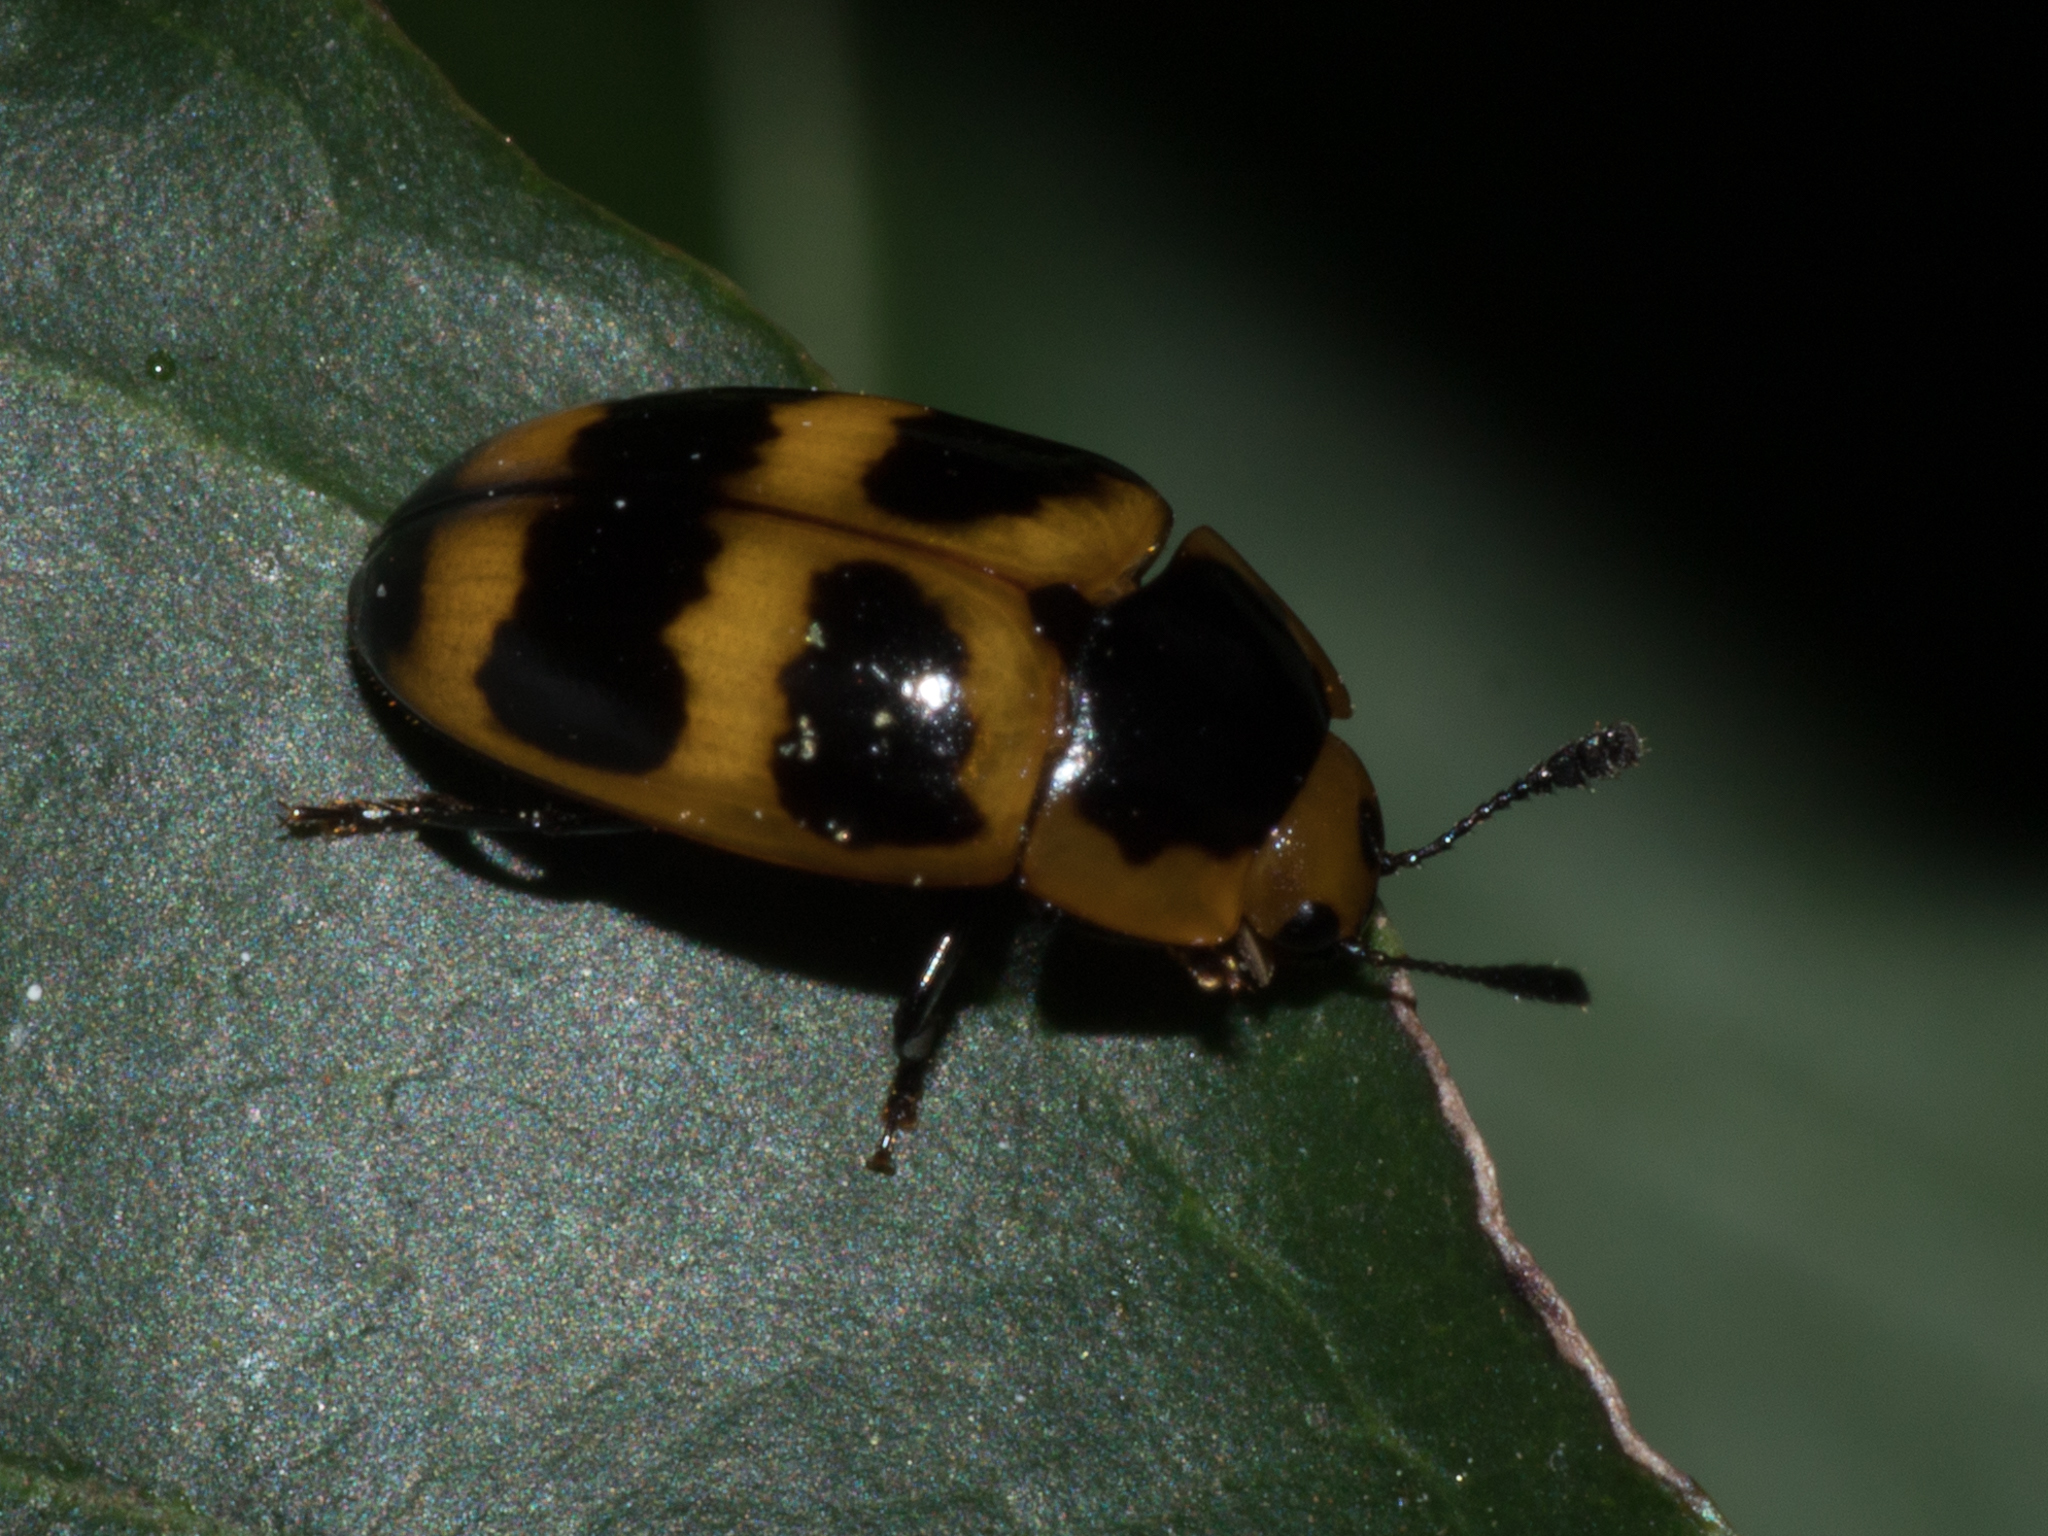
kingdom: Animalia
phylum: Arthropoda
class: Insecta
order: Coleoptera
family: Erotylidae
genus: Mycotretus
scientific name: Mycotretus marginicollis
